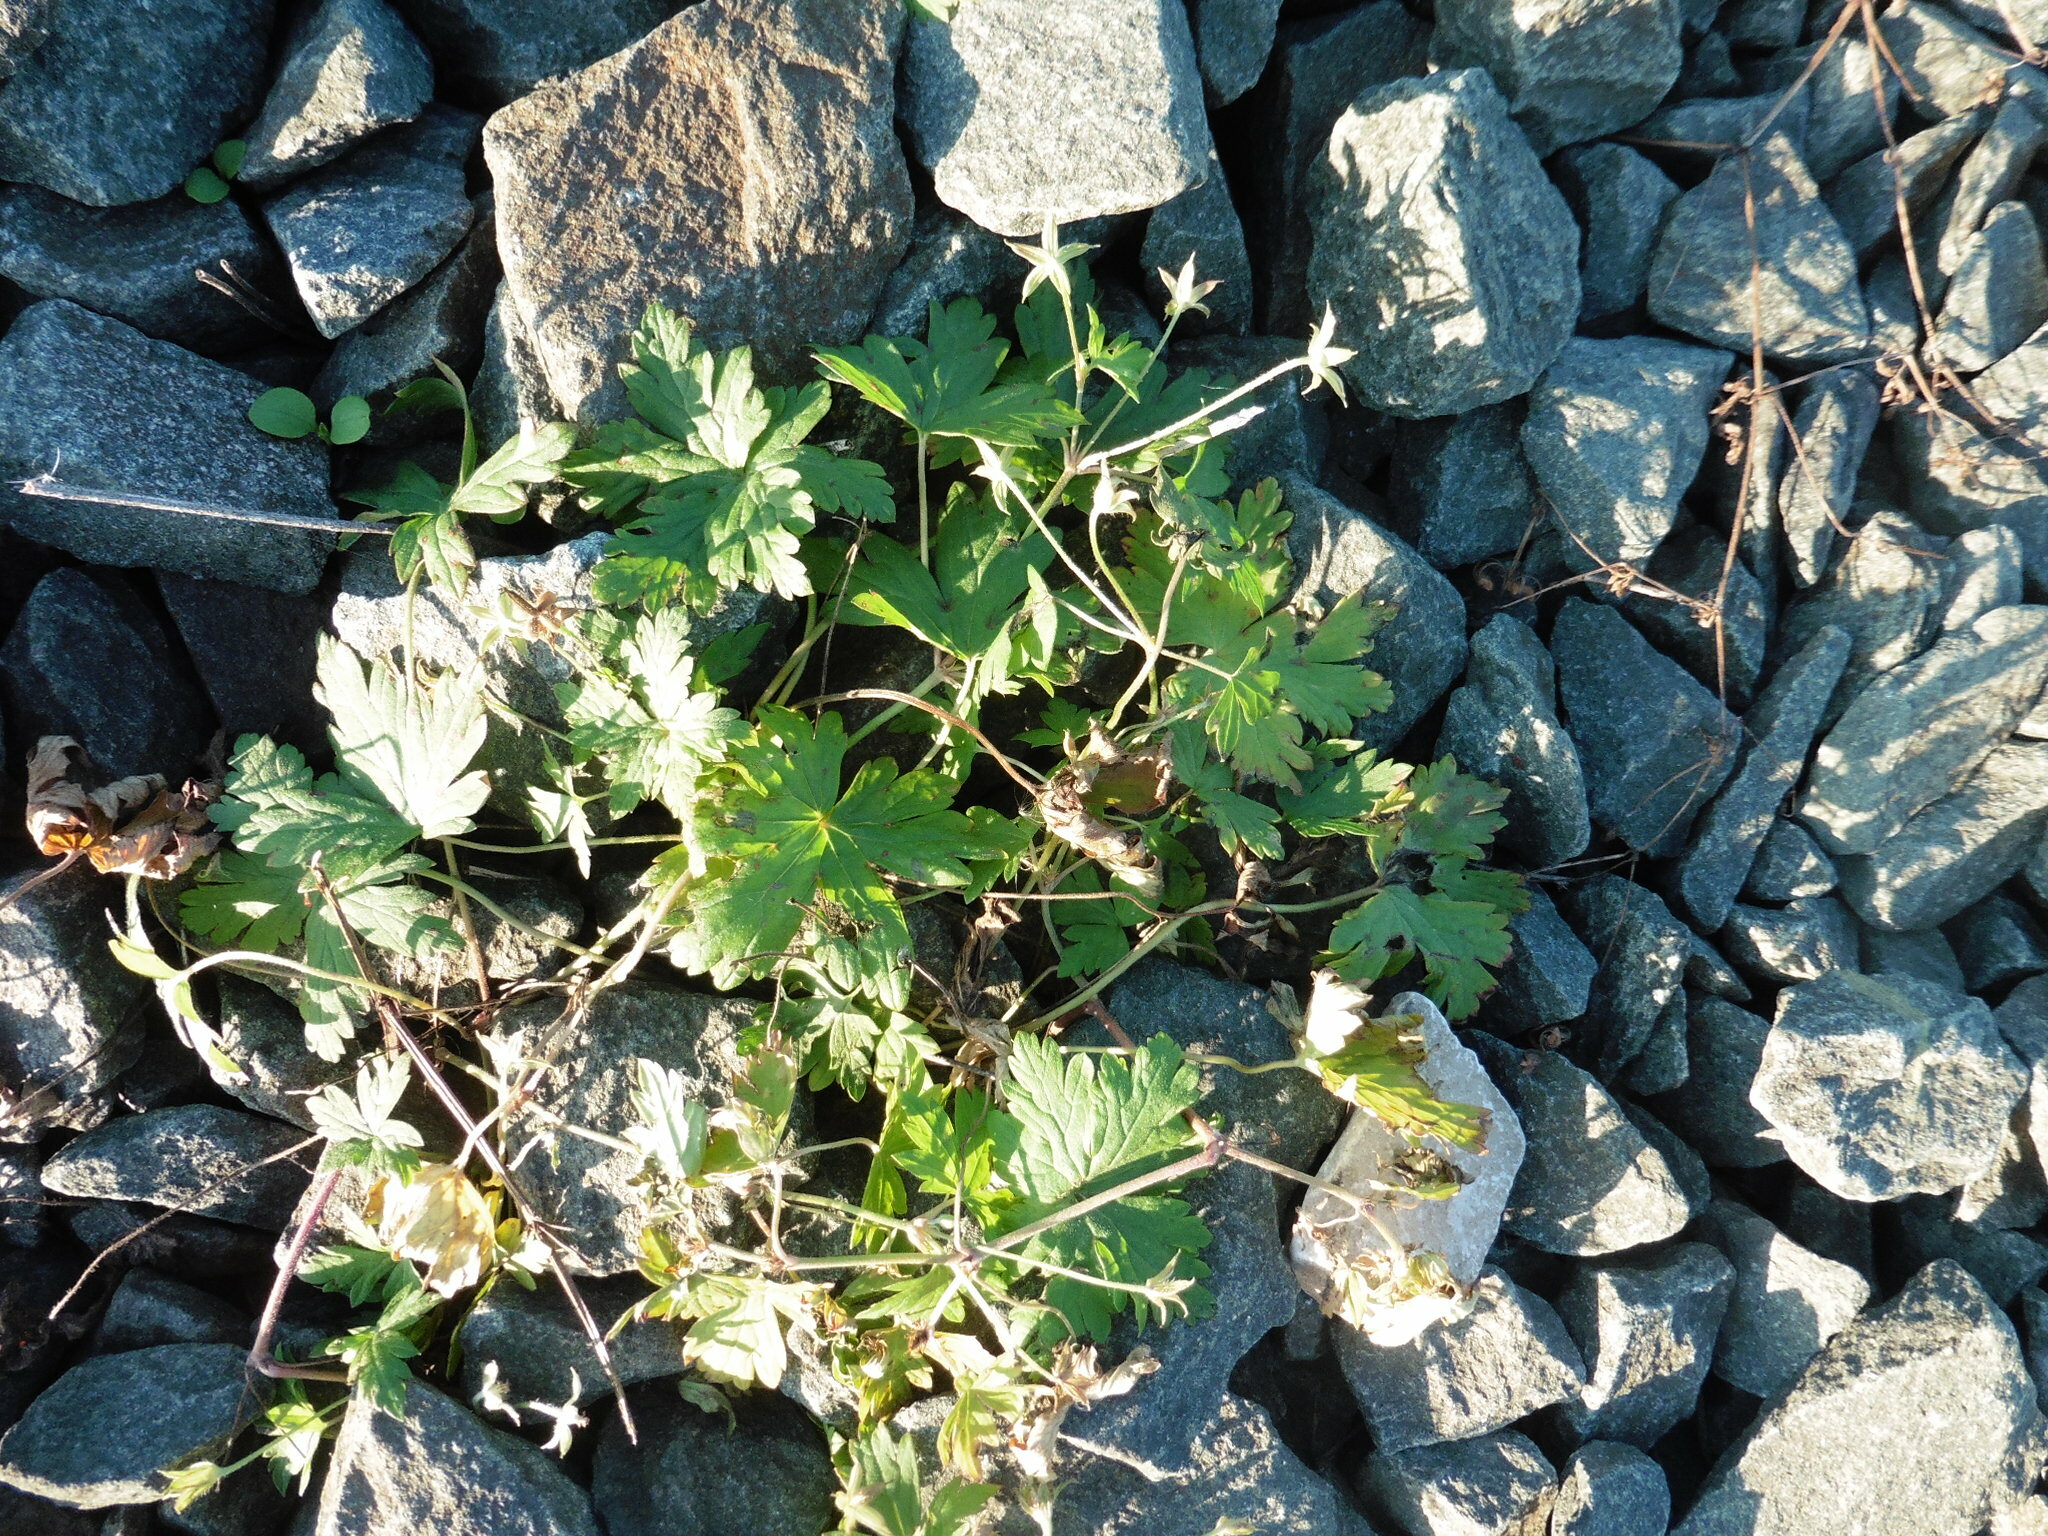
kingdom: Plantae
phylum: Tracheophyta
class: Magnoliopsida
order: Geraniales
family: Geraniaceae
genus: Geranium
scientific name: Geranium sibiricum
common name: Siberian crane's-bill
